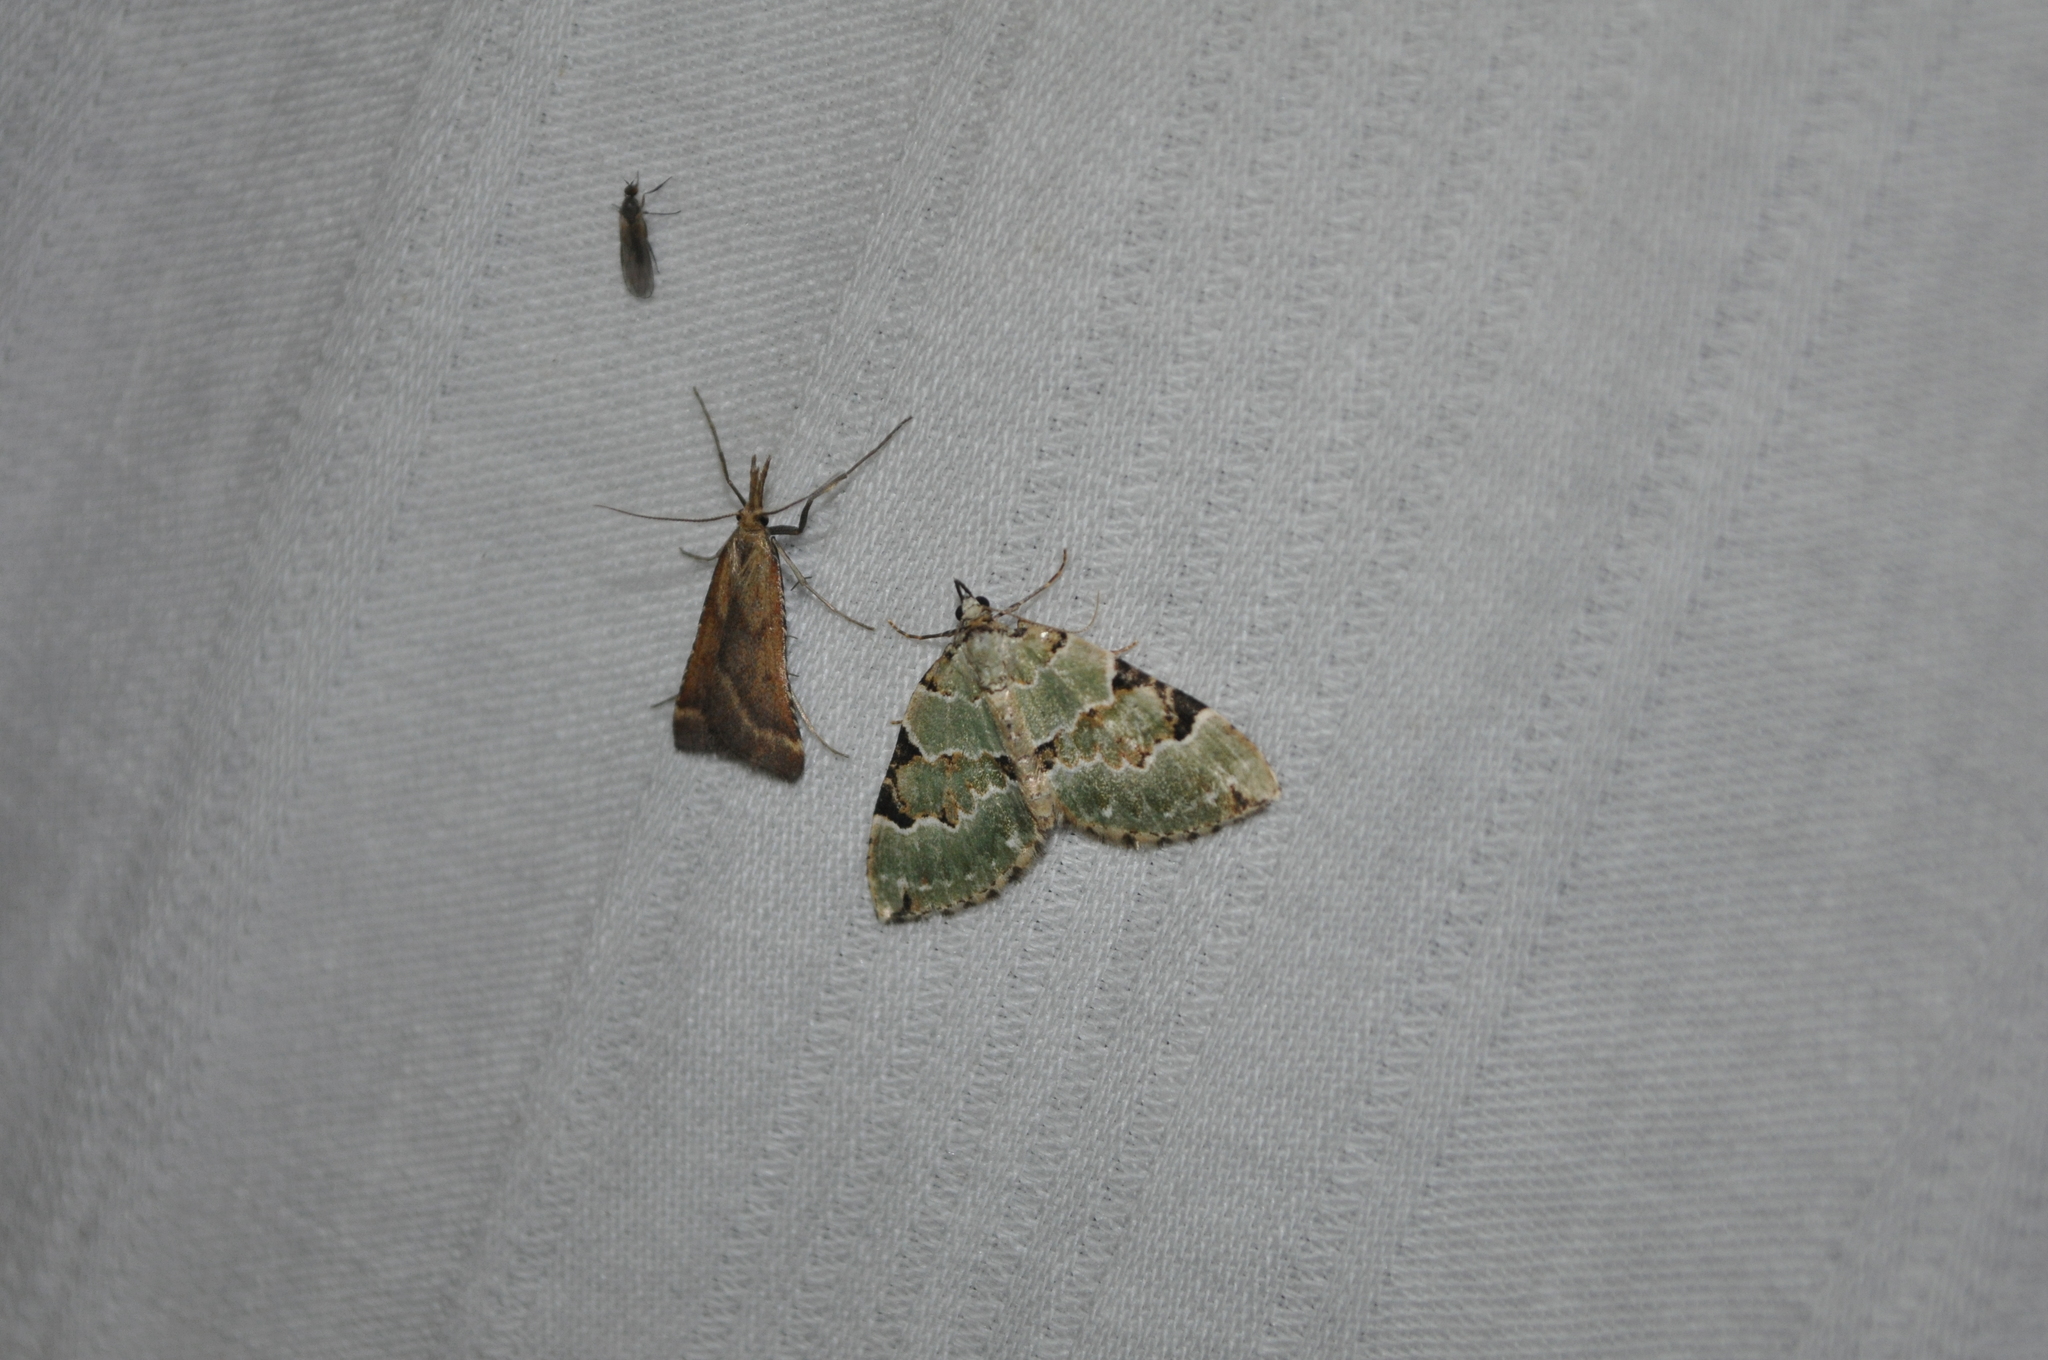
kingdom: Animalia
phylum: Arthropoda
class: Insecta
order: Lepidoptera
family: Geometridae
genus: Colostygia
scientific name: Colostygia pectinataria
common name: Green carpet
